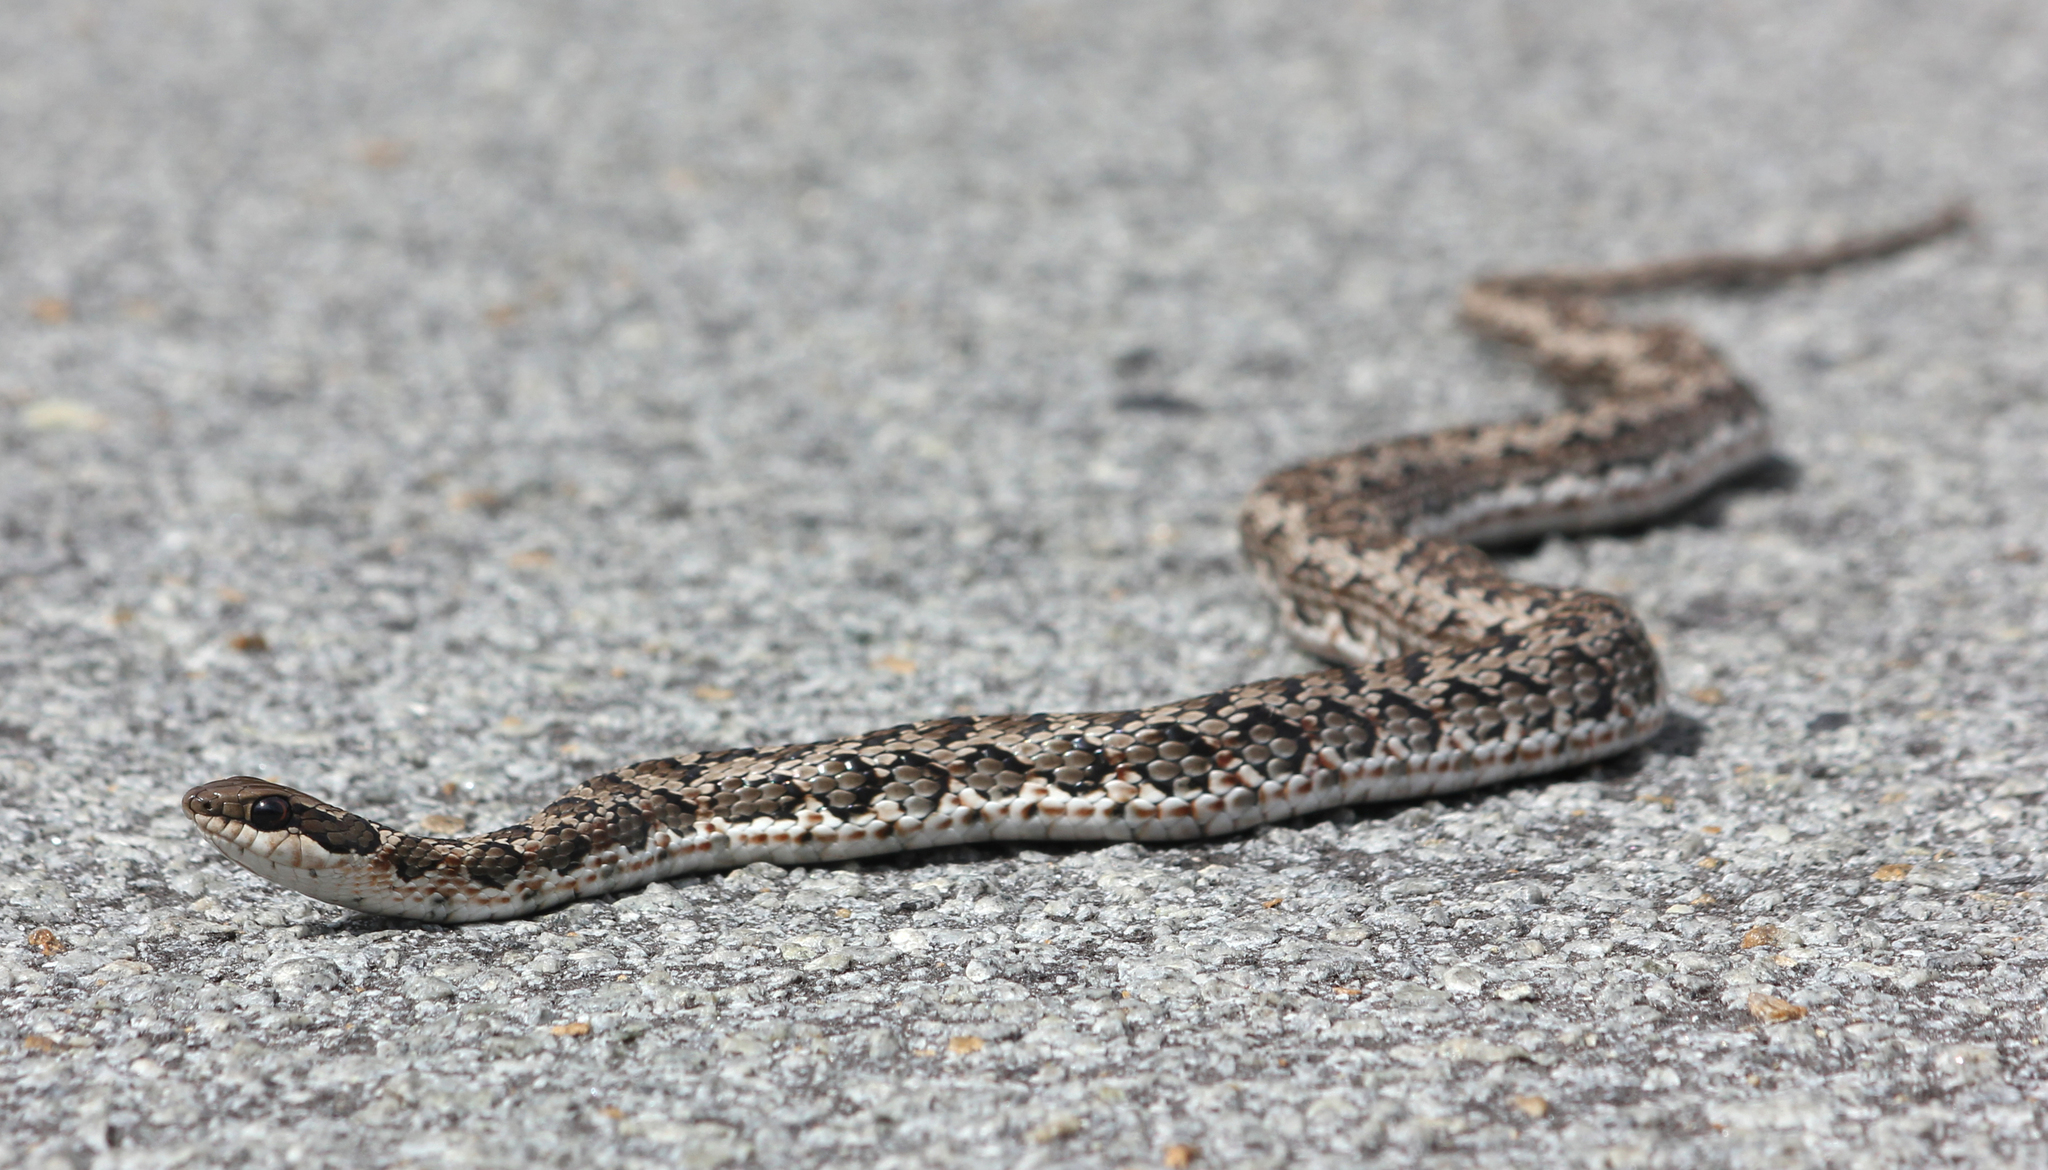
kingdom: Animalia
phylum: Chordata
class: Squamata
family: Psammophiidae
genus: Psammophylax
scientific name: Psammophylax rhombeatus
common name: Rhombic skaapsteker
